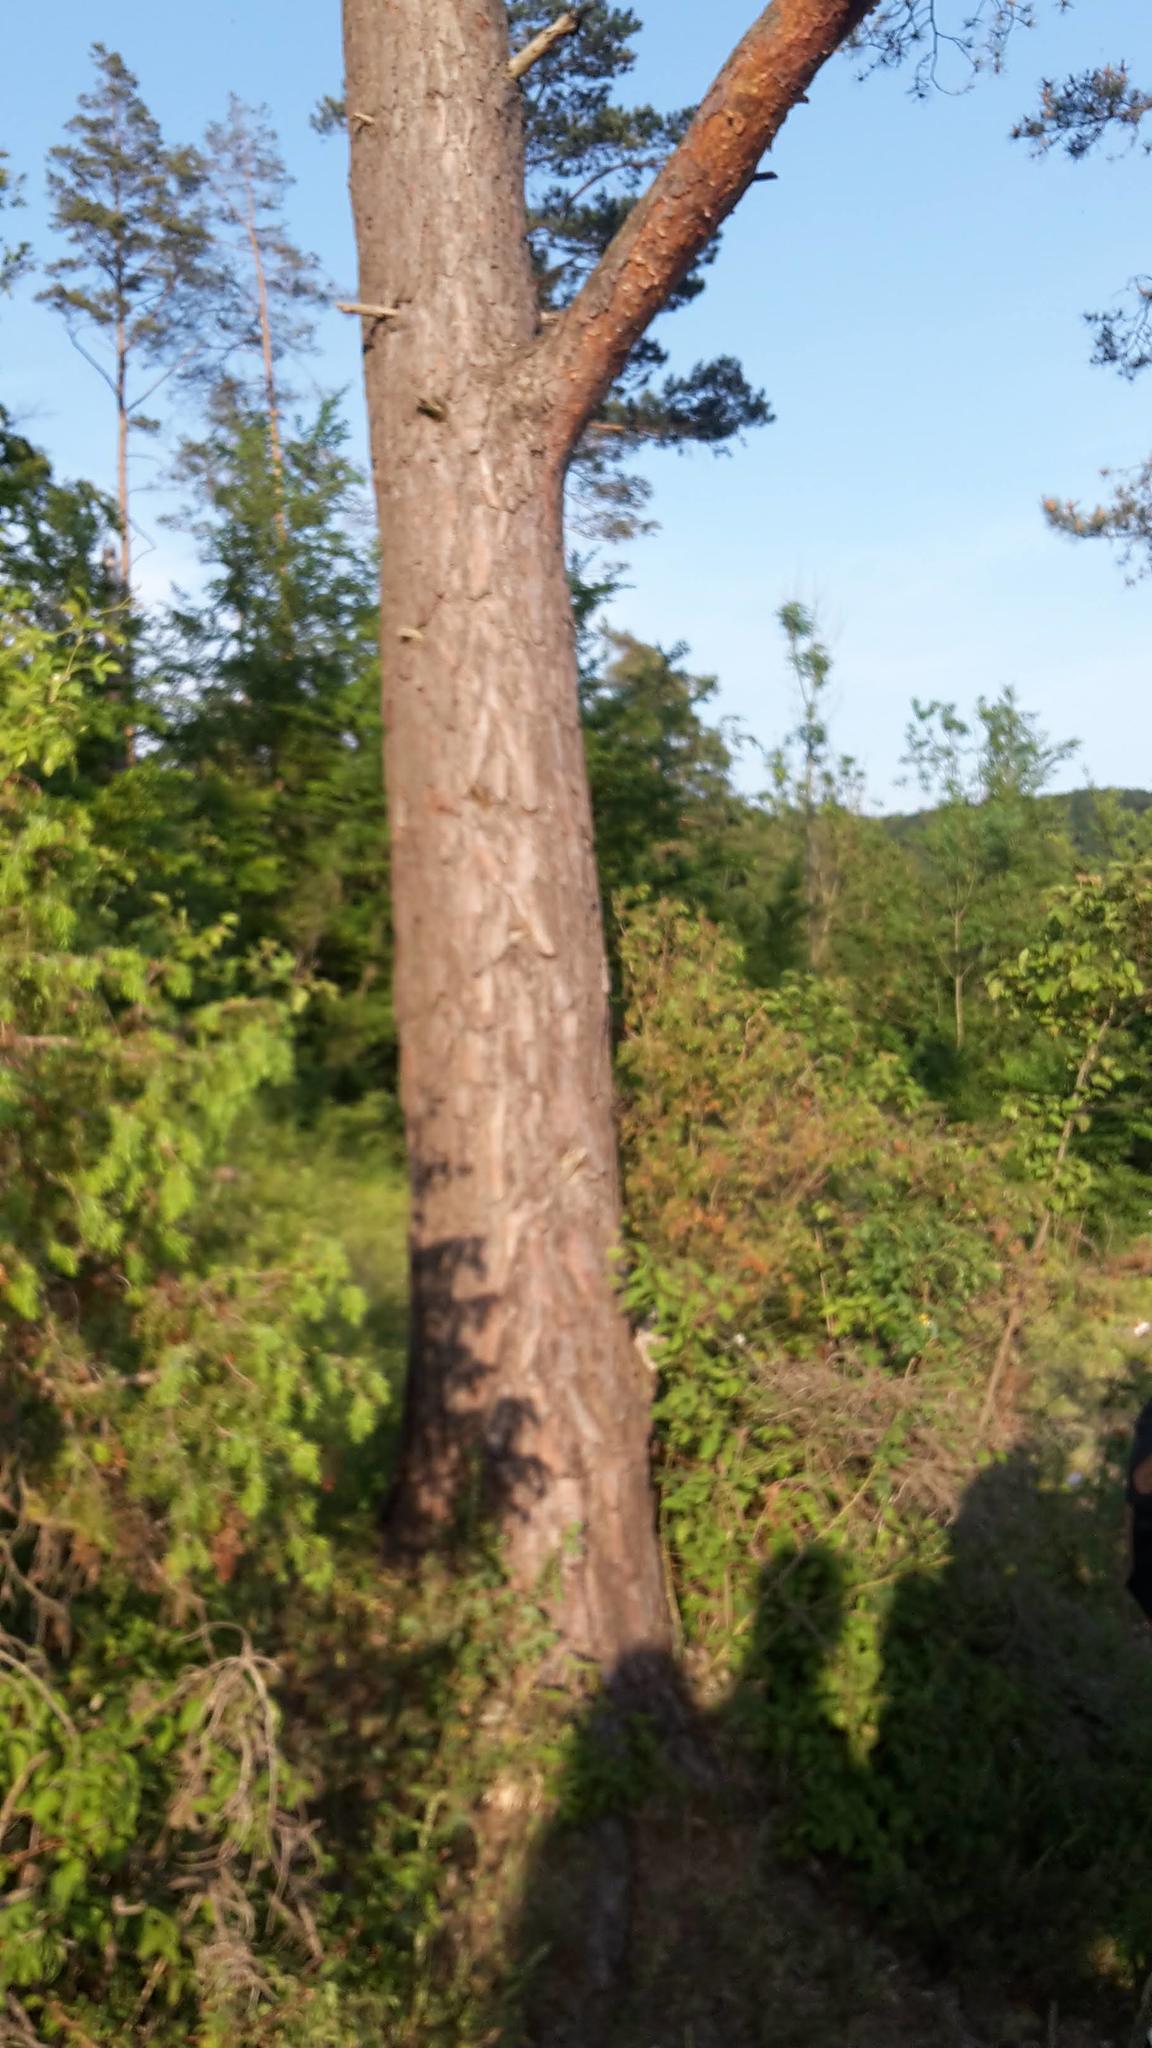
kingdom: Plantae
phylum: Tracheophyta
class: Pinopsida
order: Pinales
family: Pinaceae
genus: Pinus
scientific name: Pinus sylvestris
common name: Scots pine
